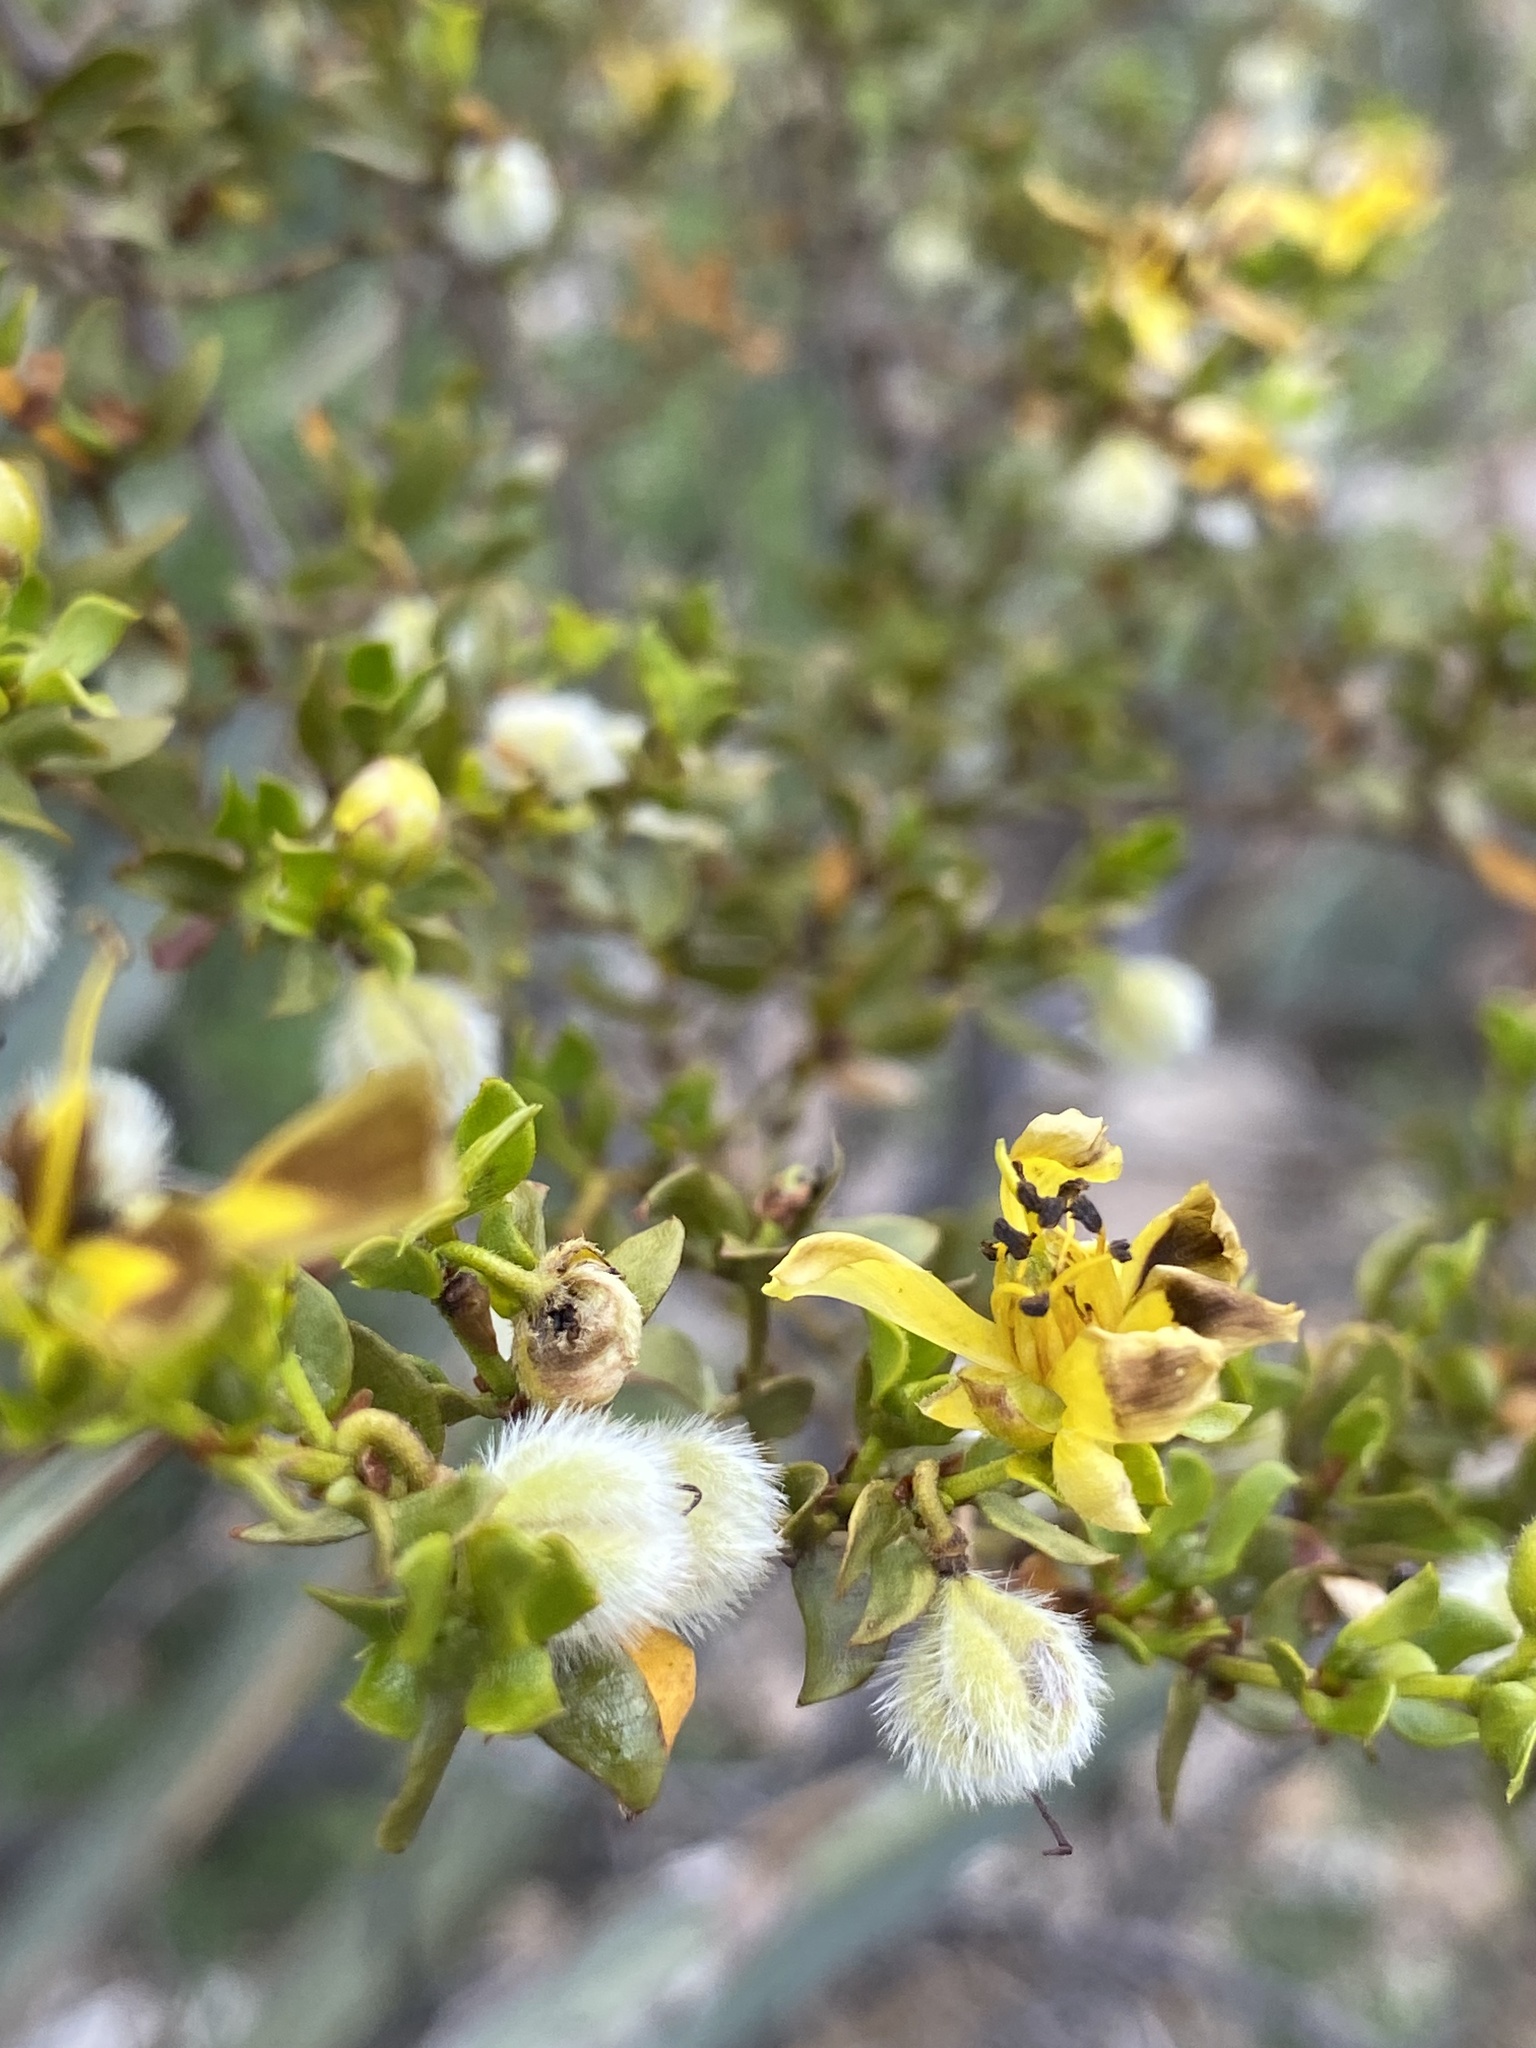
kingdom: Plantae
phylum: Tracheophyta
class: Magnoliopsida
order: Zygophyllales
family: Zygophyllaceae
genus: Larrea
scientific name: Larrea tridentata
